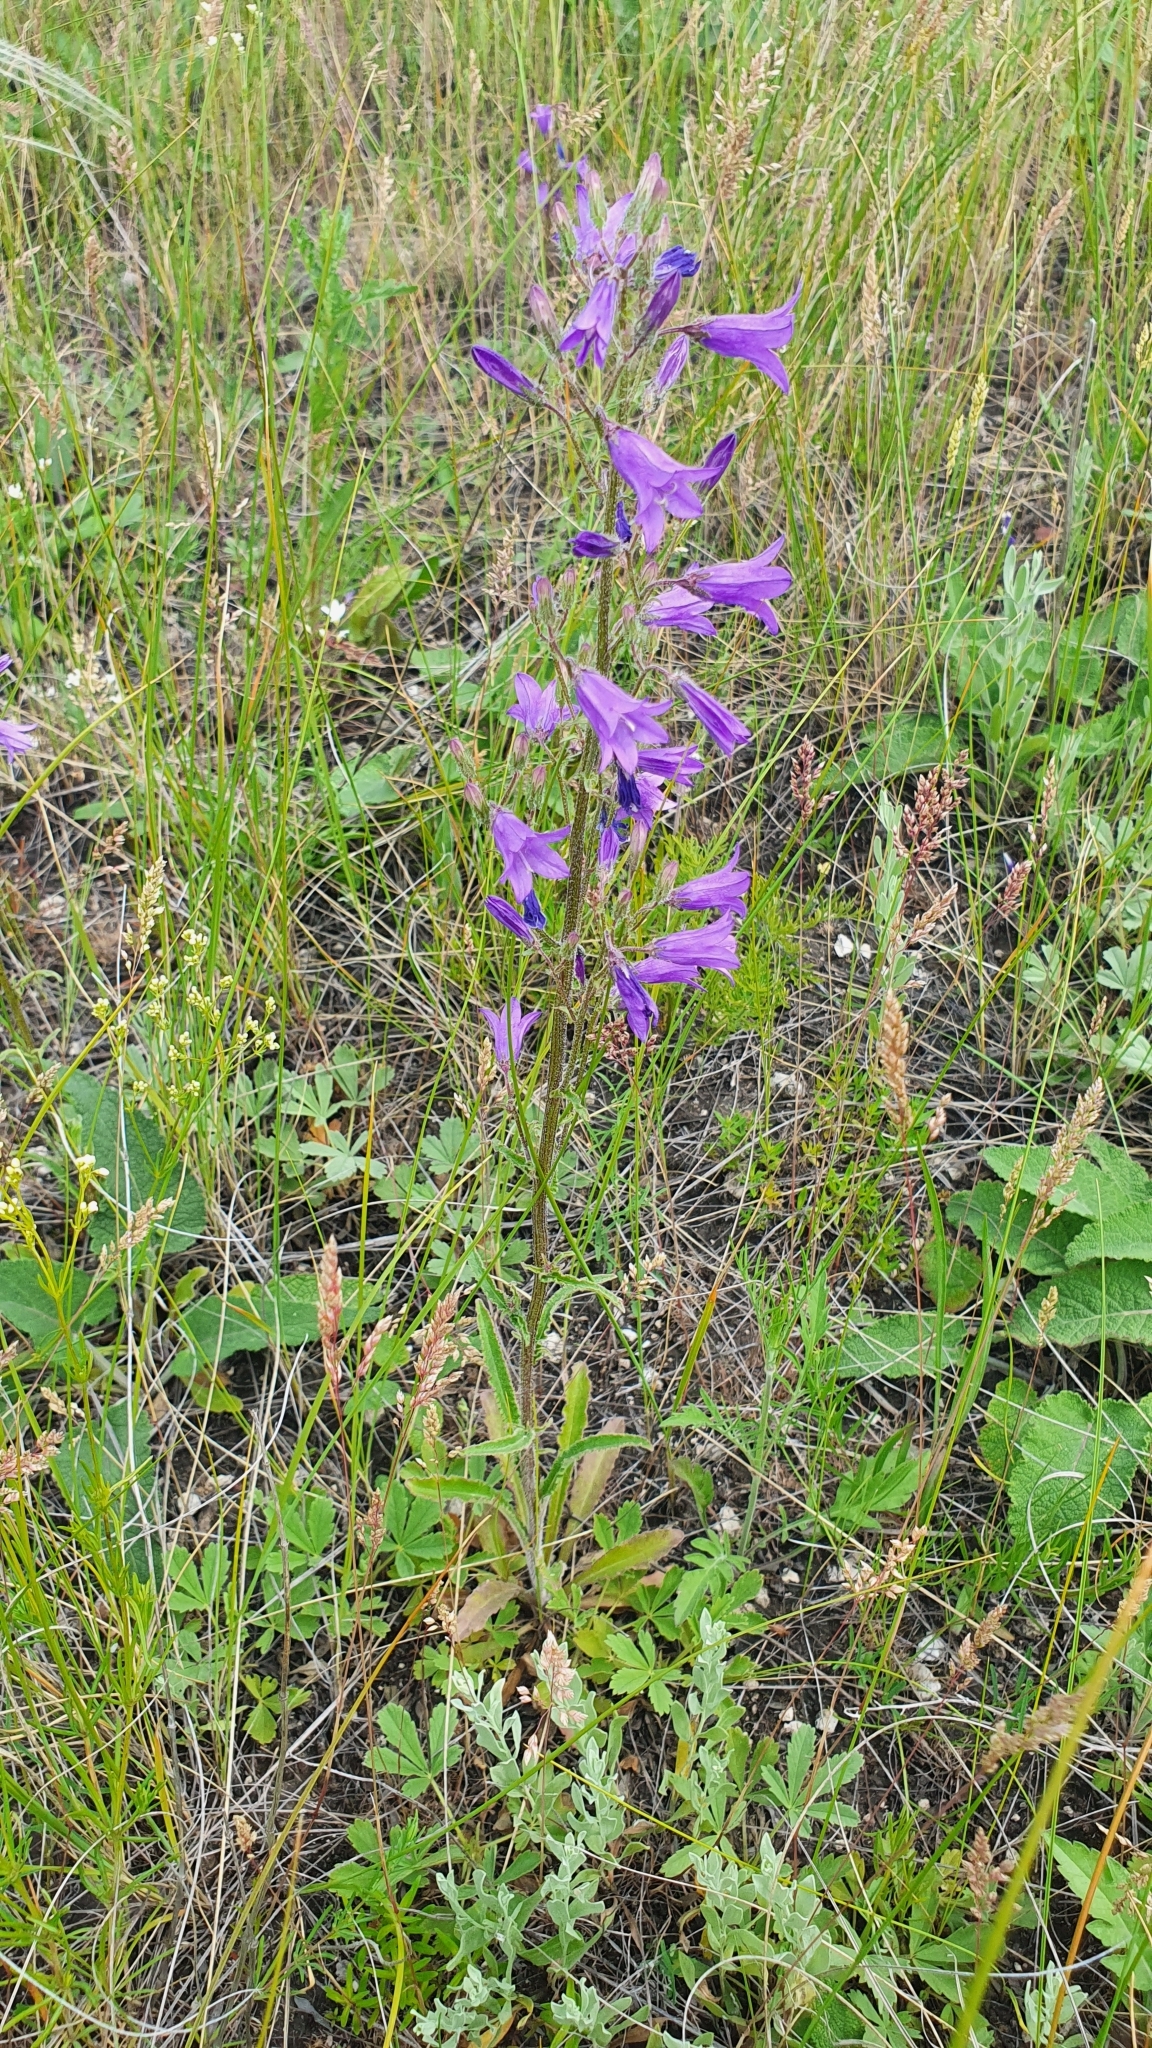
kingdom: Plantae
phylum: Tracheophyta
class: Magnoliopsida
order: Asterales
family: Campanulaceae
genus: Campanula
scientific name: Campanula sibirica
